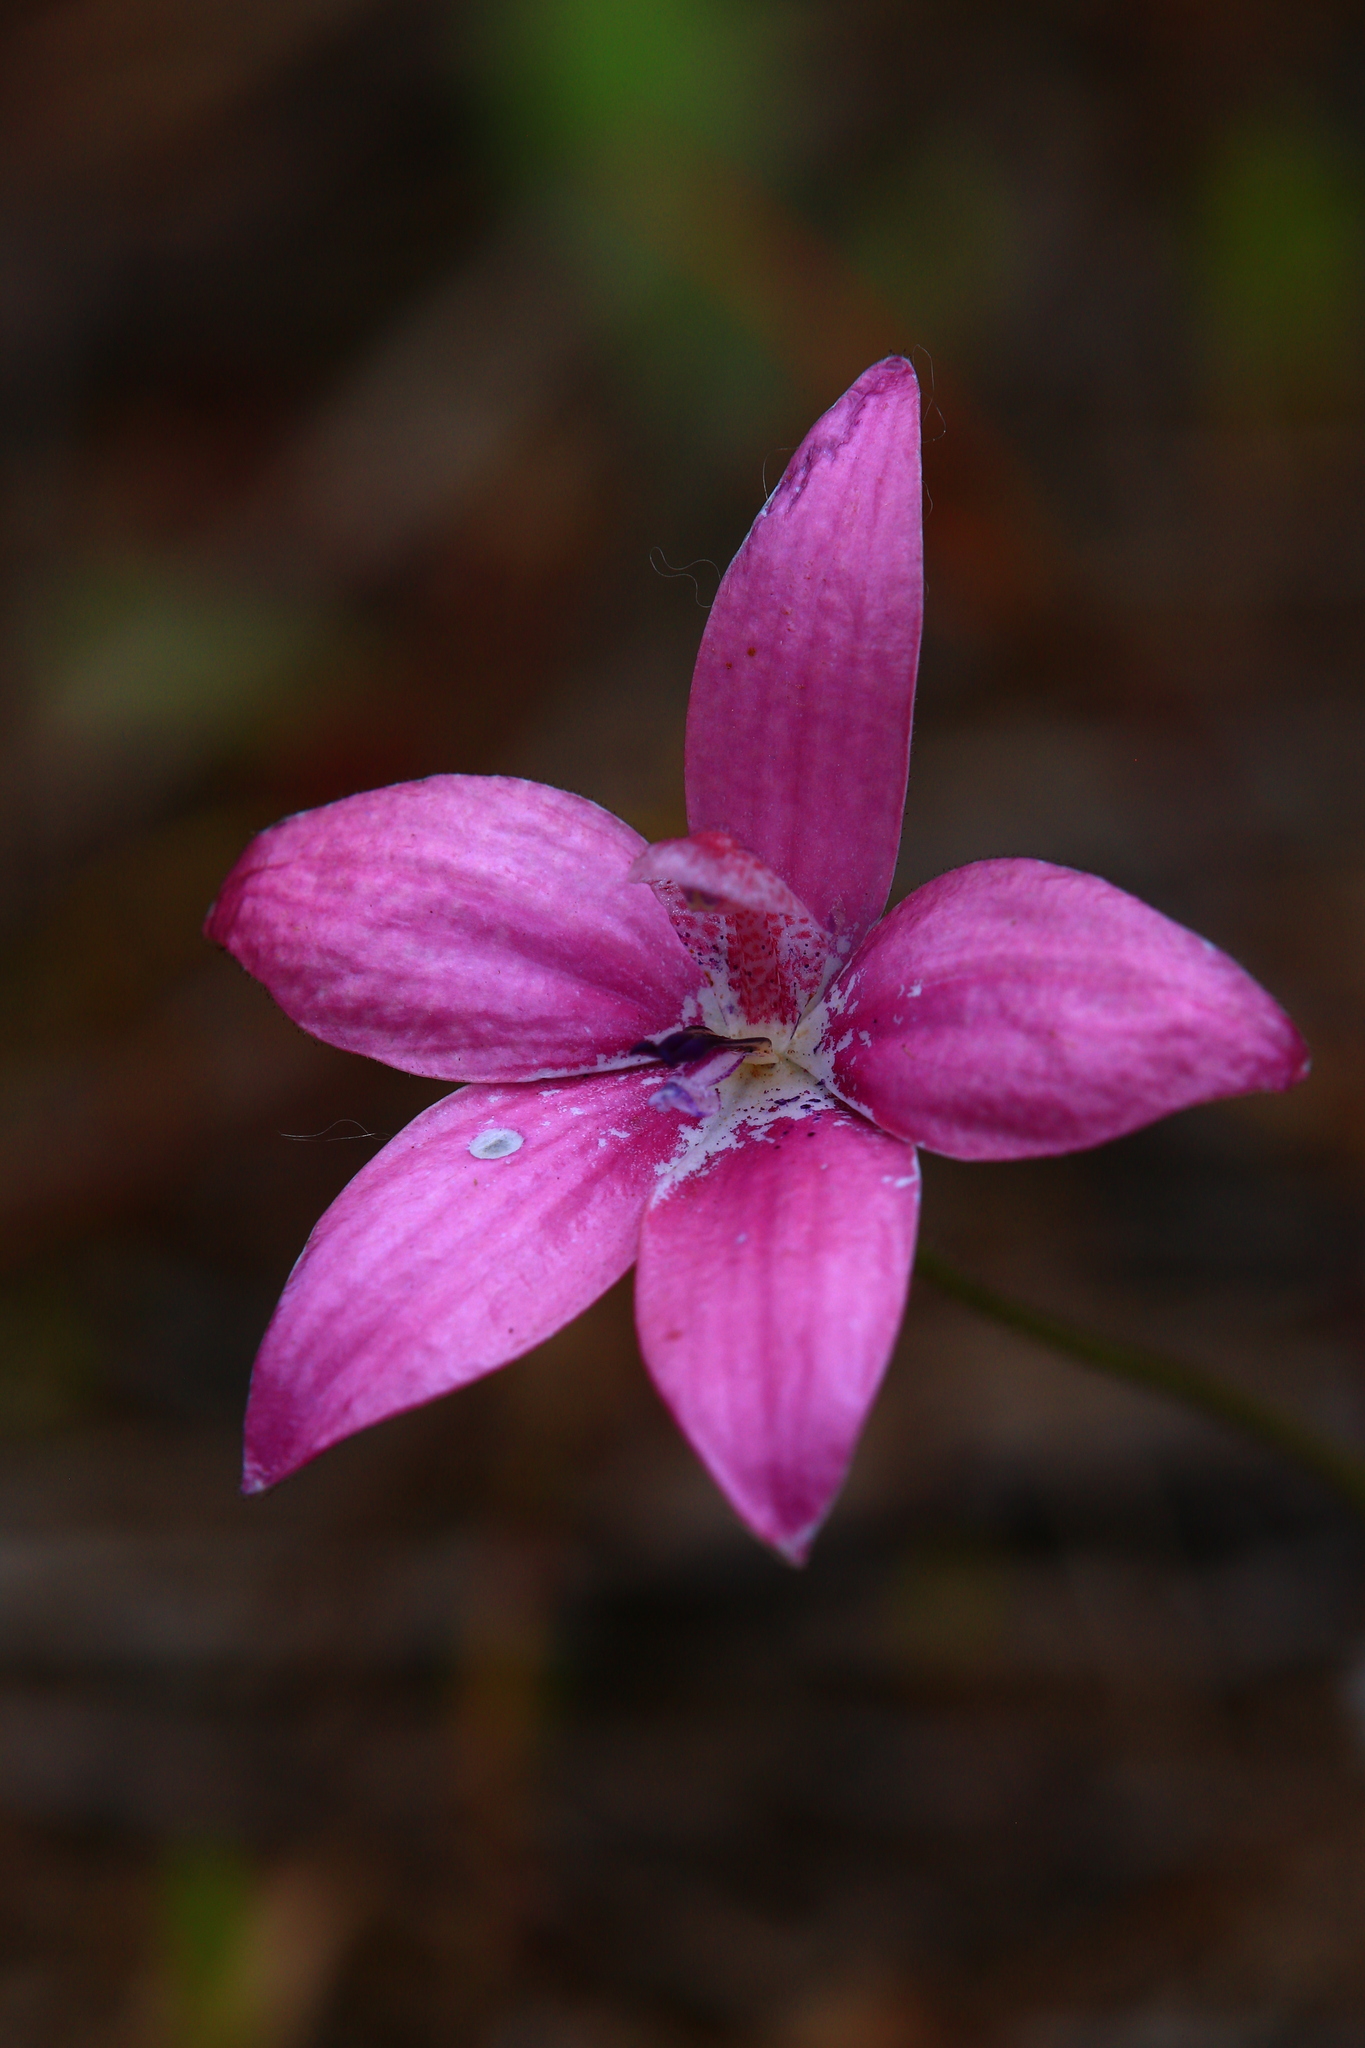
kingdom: Plantae
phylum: Tracheophyta
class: Liliopsida
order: Asparagales
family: Orchidaceae
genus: Caladenia
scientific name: Caladenia emarginata
